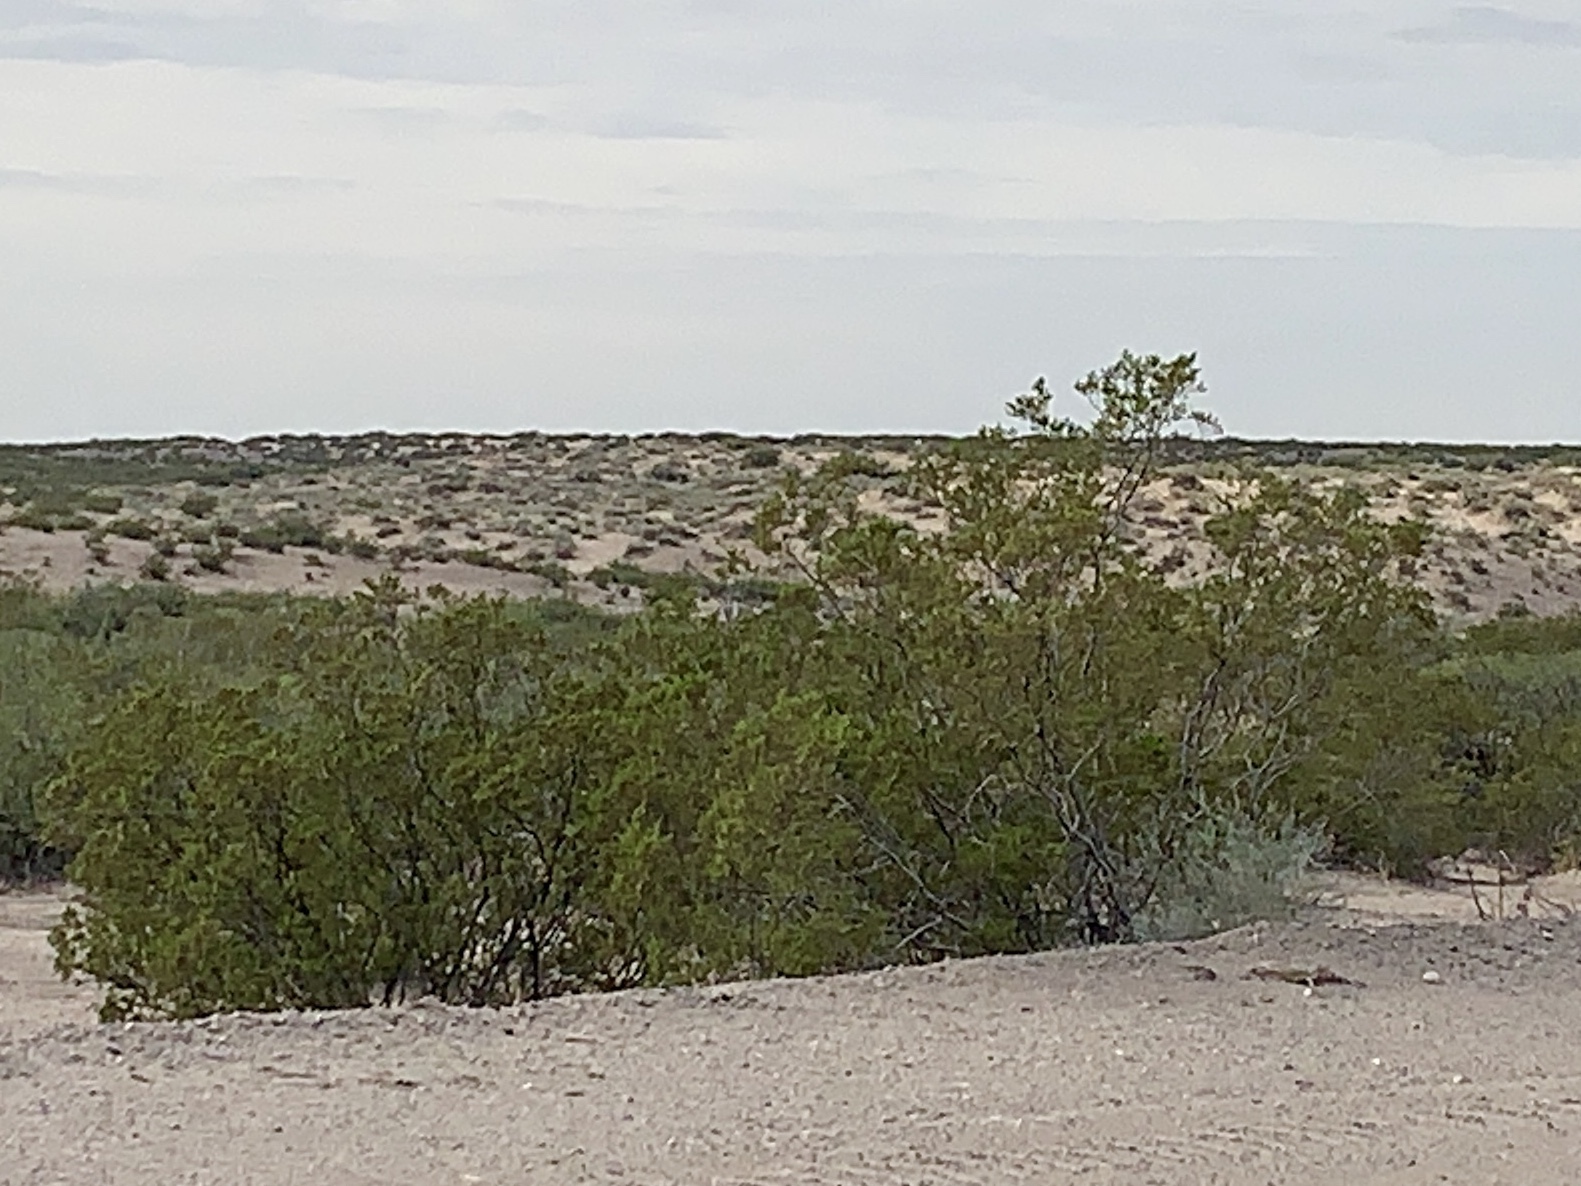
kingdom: Plantae
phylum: Tracheophyta
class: Magnoliopsida
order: Zygophyllales
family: Zygophyllaceae
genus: Larrea
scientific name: Larrea tridentata
